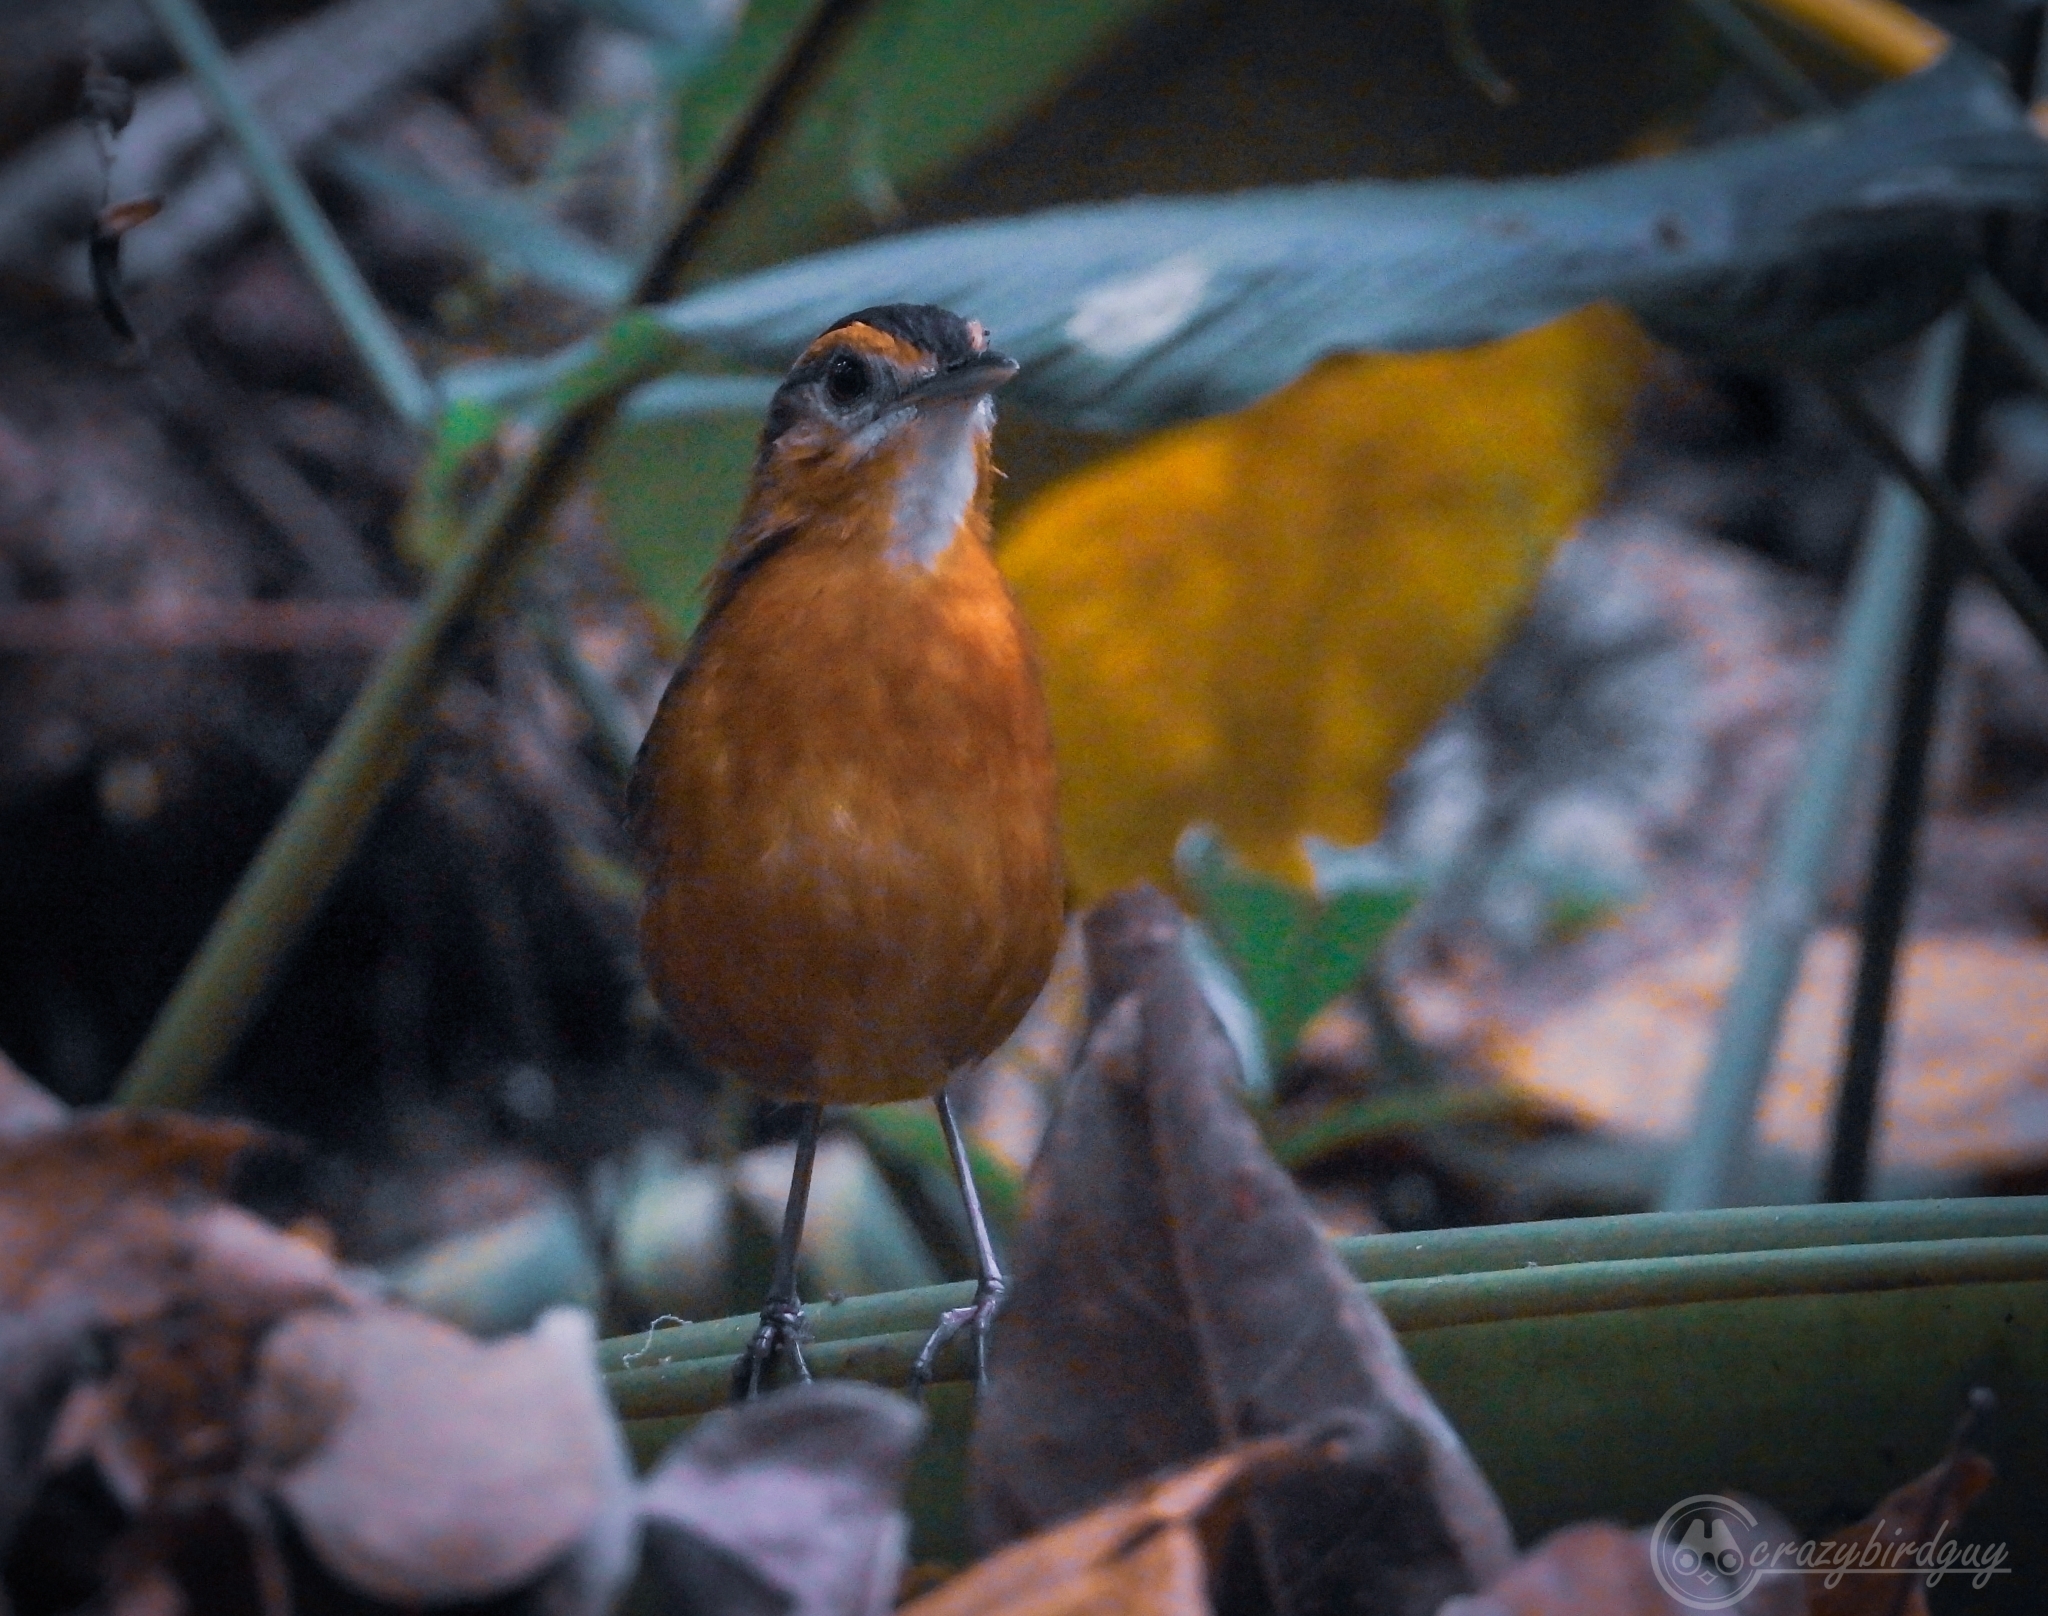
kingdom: Animalia
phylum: Chordata
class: Aves
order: Passeriformes
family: Pellorneidae
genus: Pellorneum
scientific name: Pellorneum capistratum
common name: Black-capped babbler
